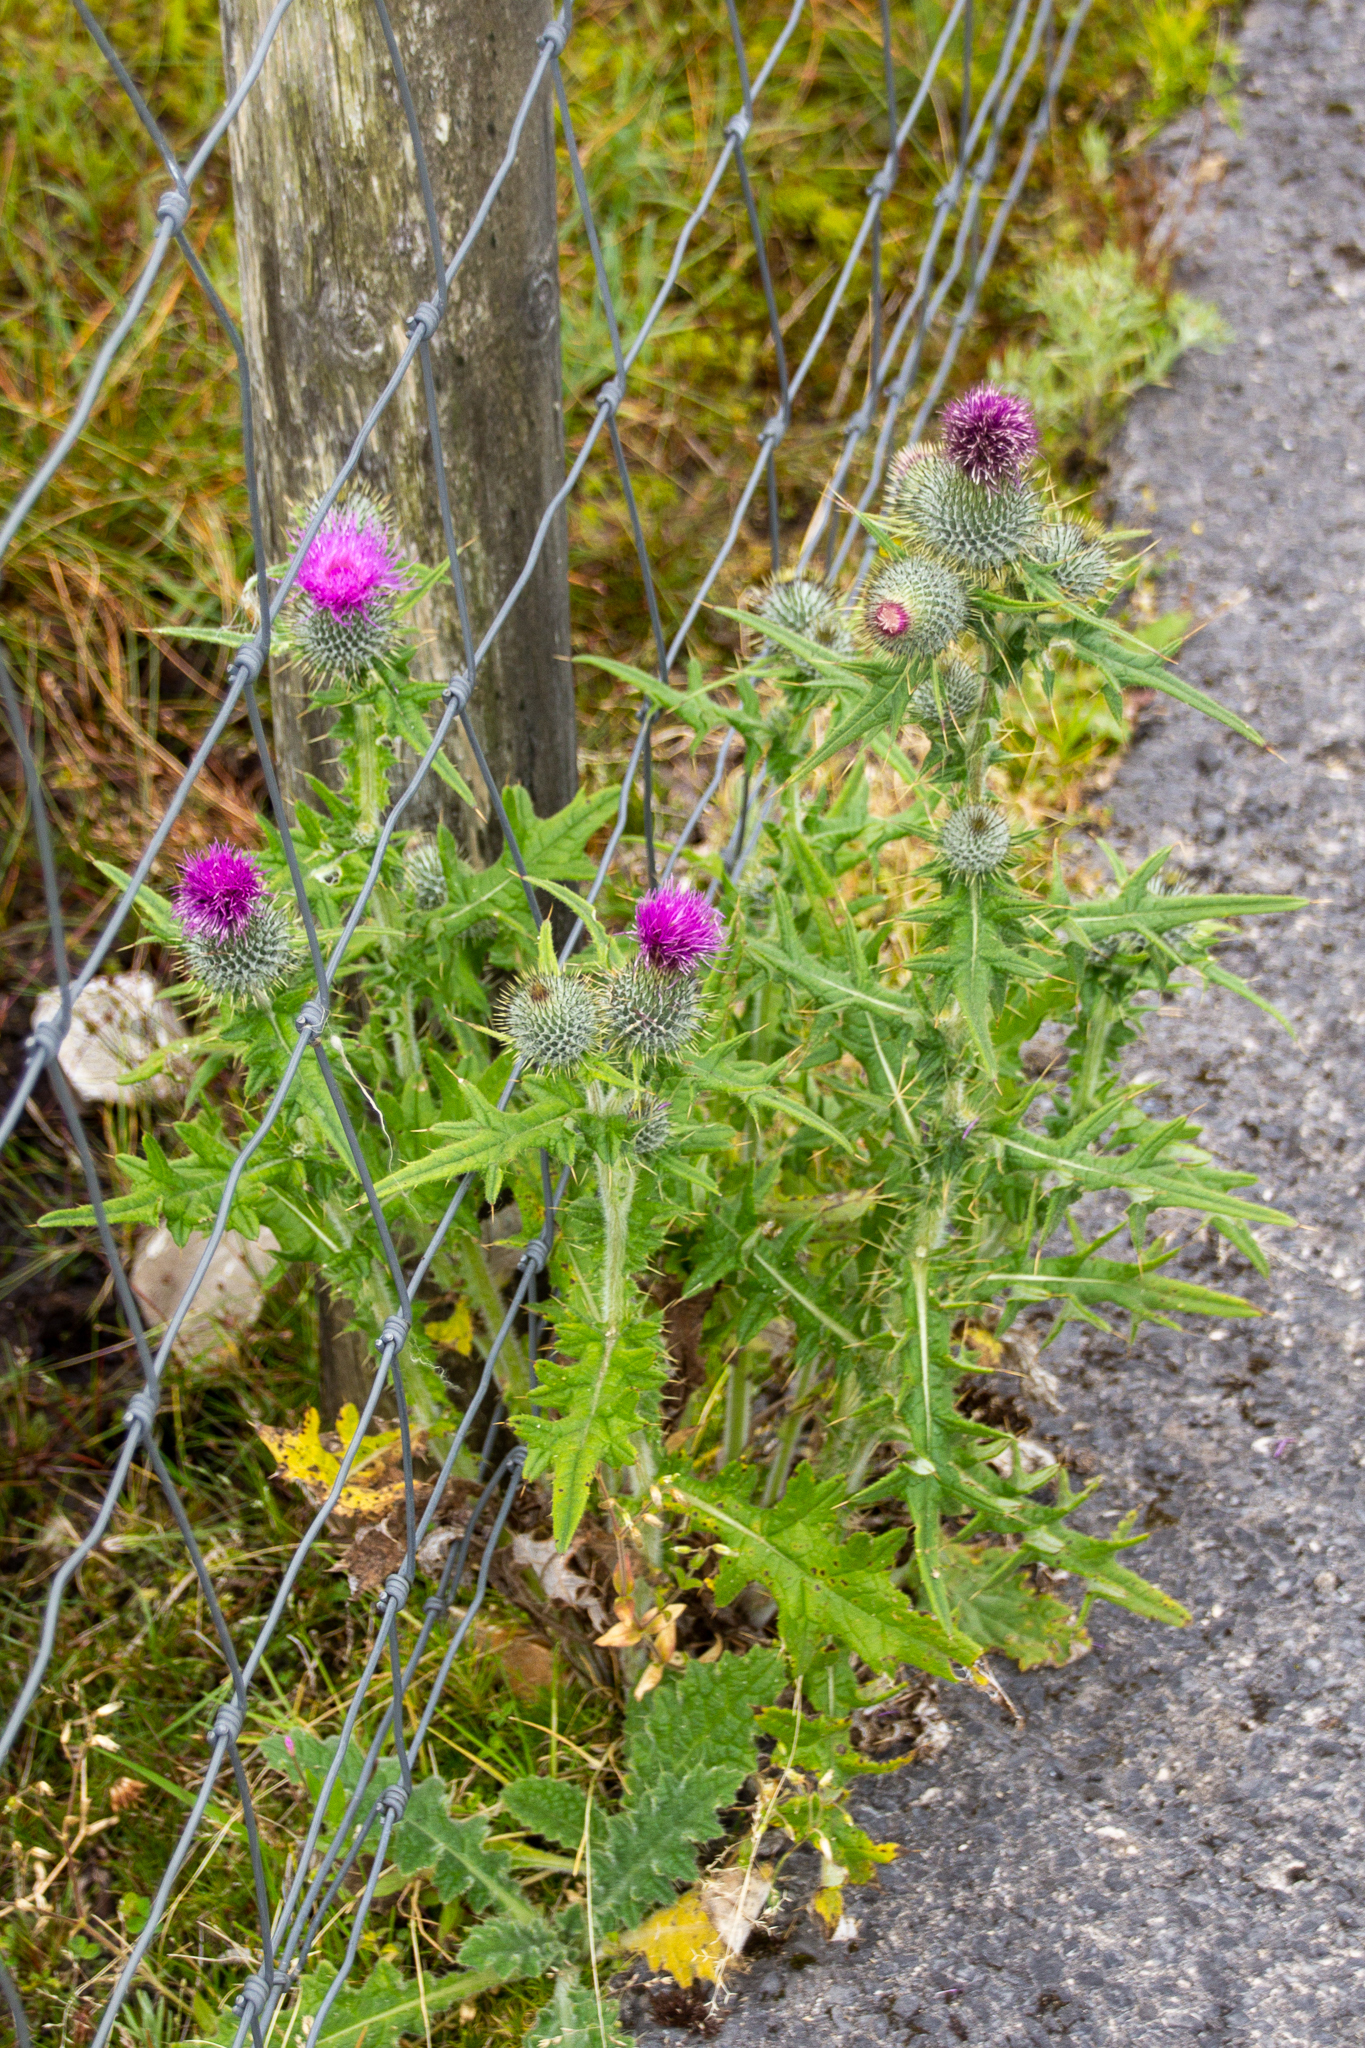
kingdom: Plantae
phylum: Tracheophyta
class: Magnoliopsida
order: Asterales
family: Asteraceae
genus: Cirsium
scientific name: Cirsium vulgare
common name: Bull thistle
